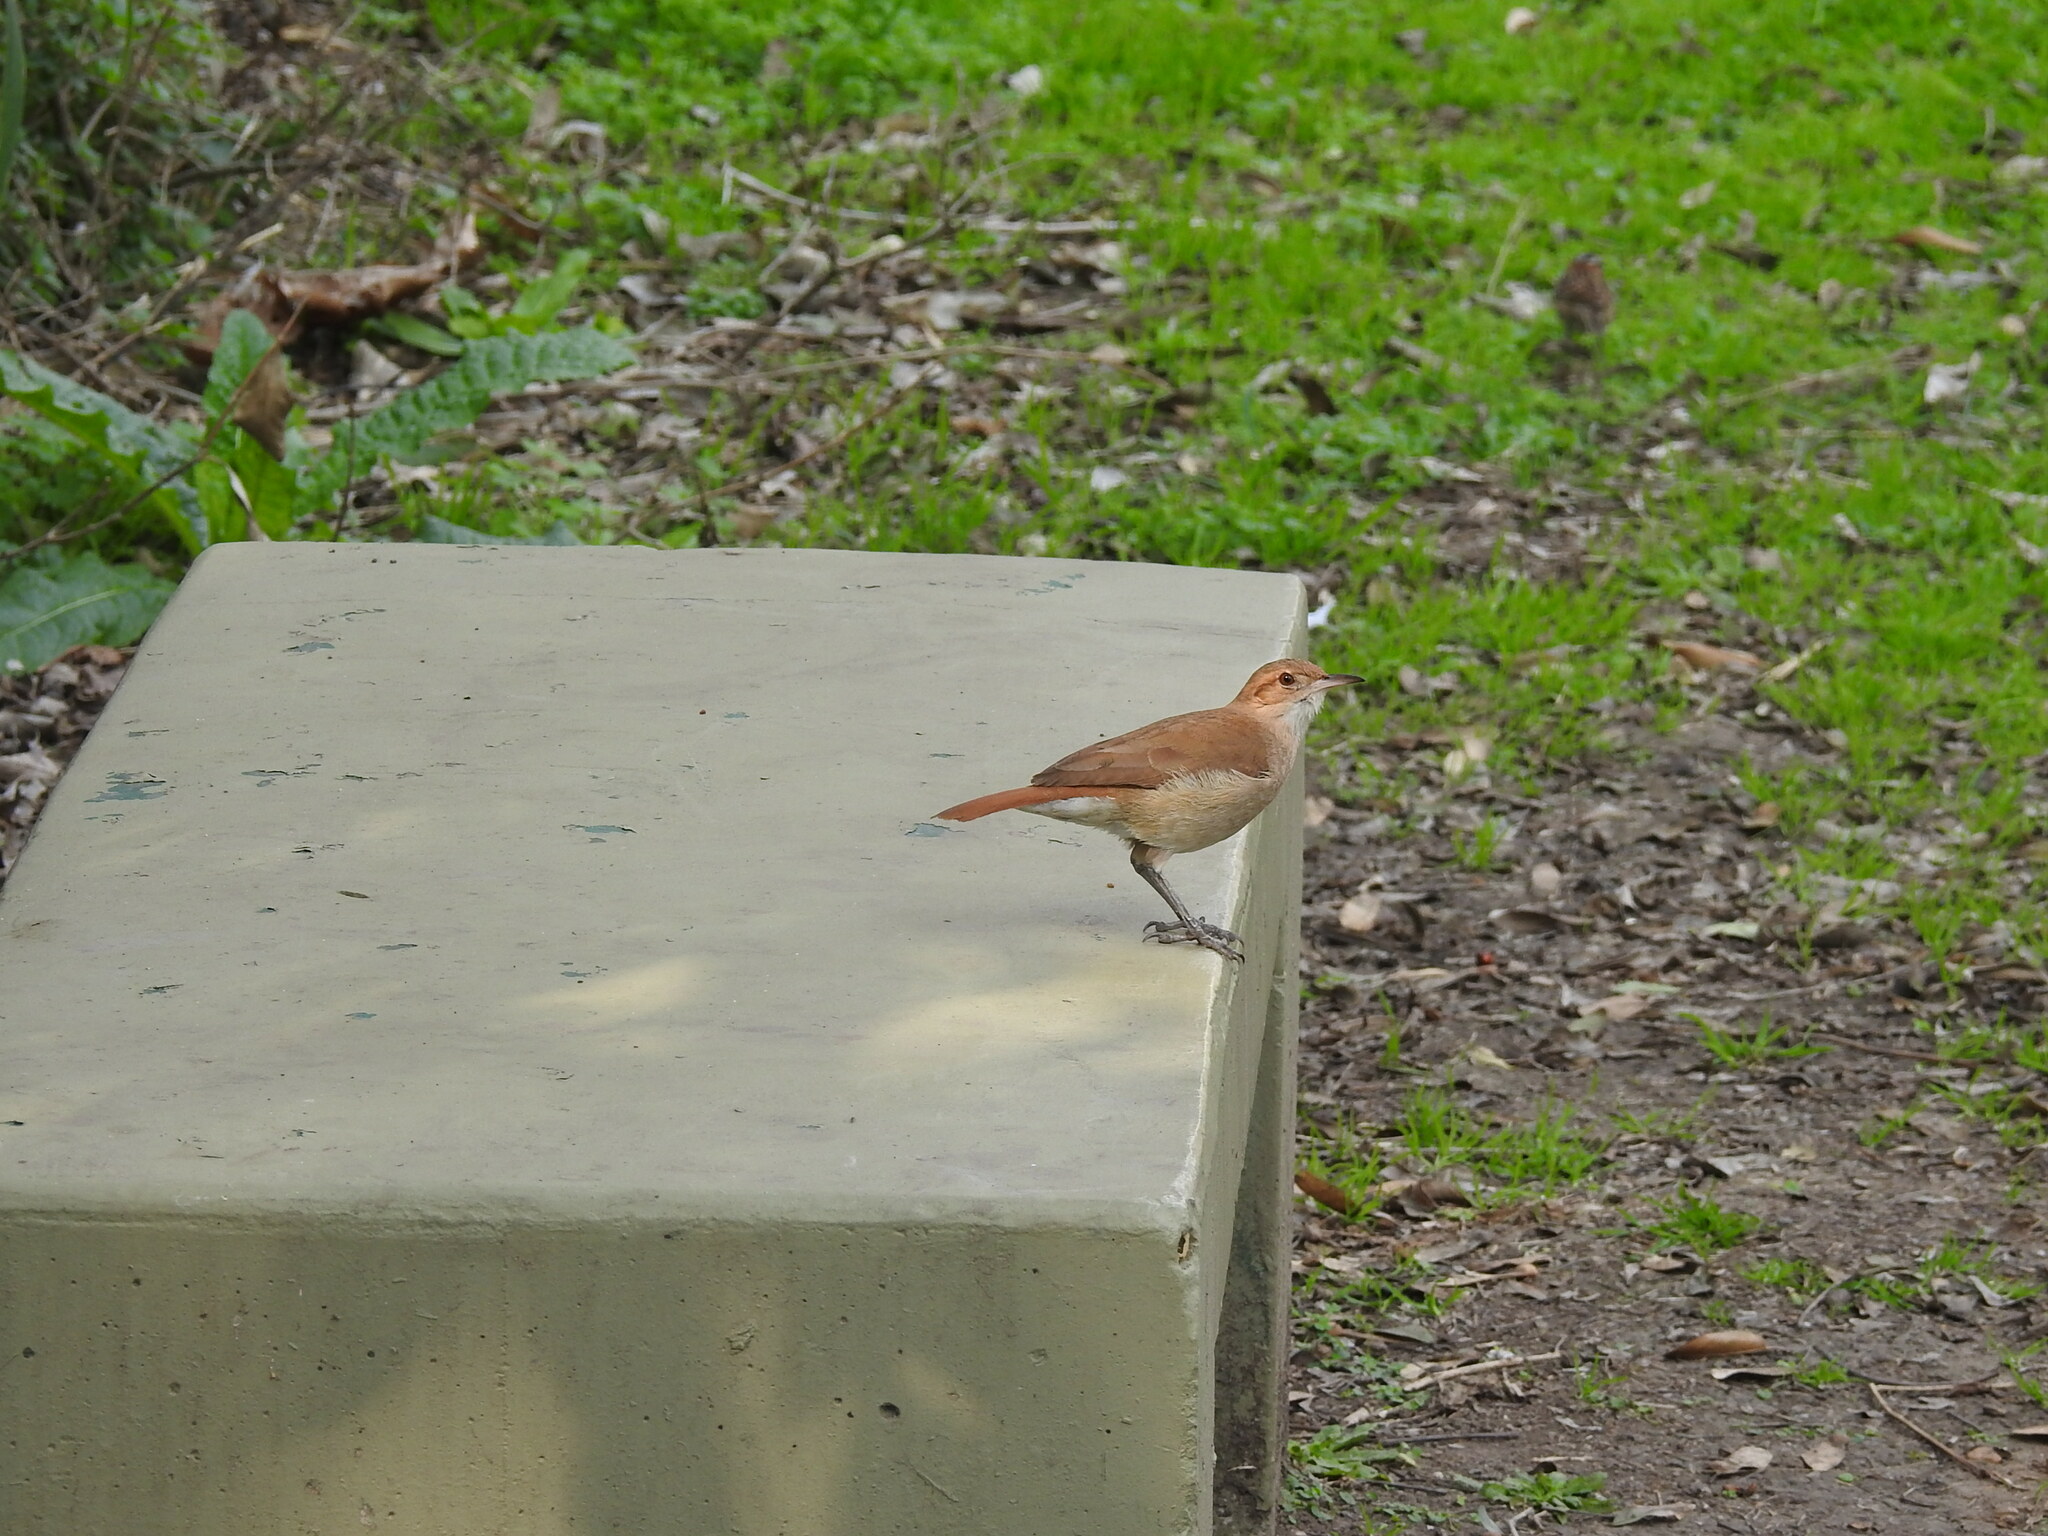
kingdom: Animalia
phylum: Chordata
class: Aves
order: Passeriformes
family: Furnariidae
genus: Furnarius
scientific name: Furnarius rufus
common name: Rufous hornero
